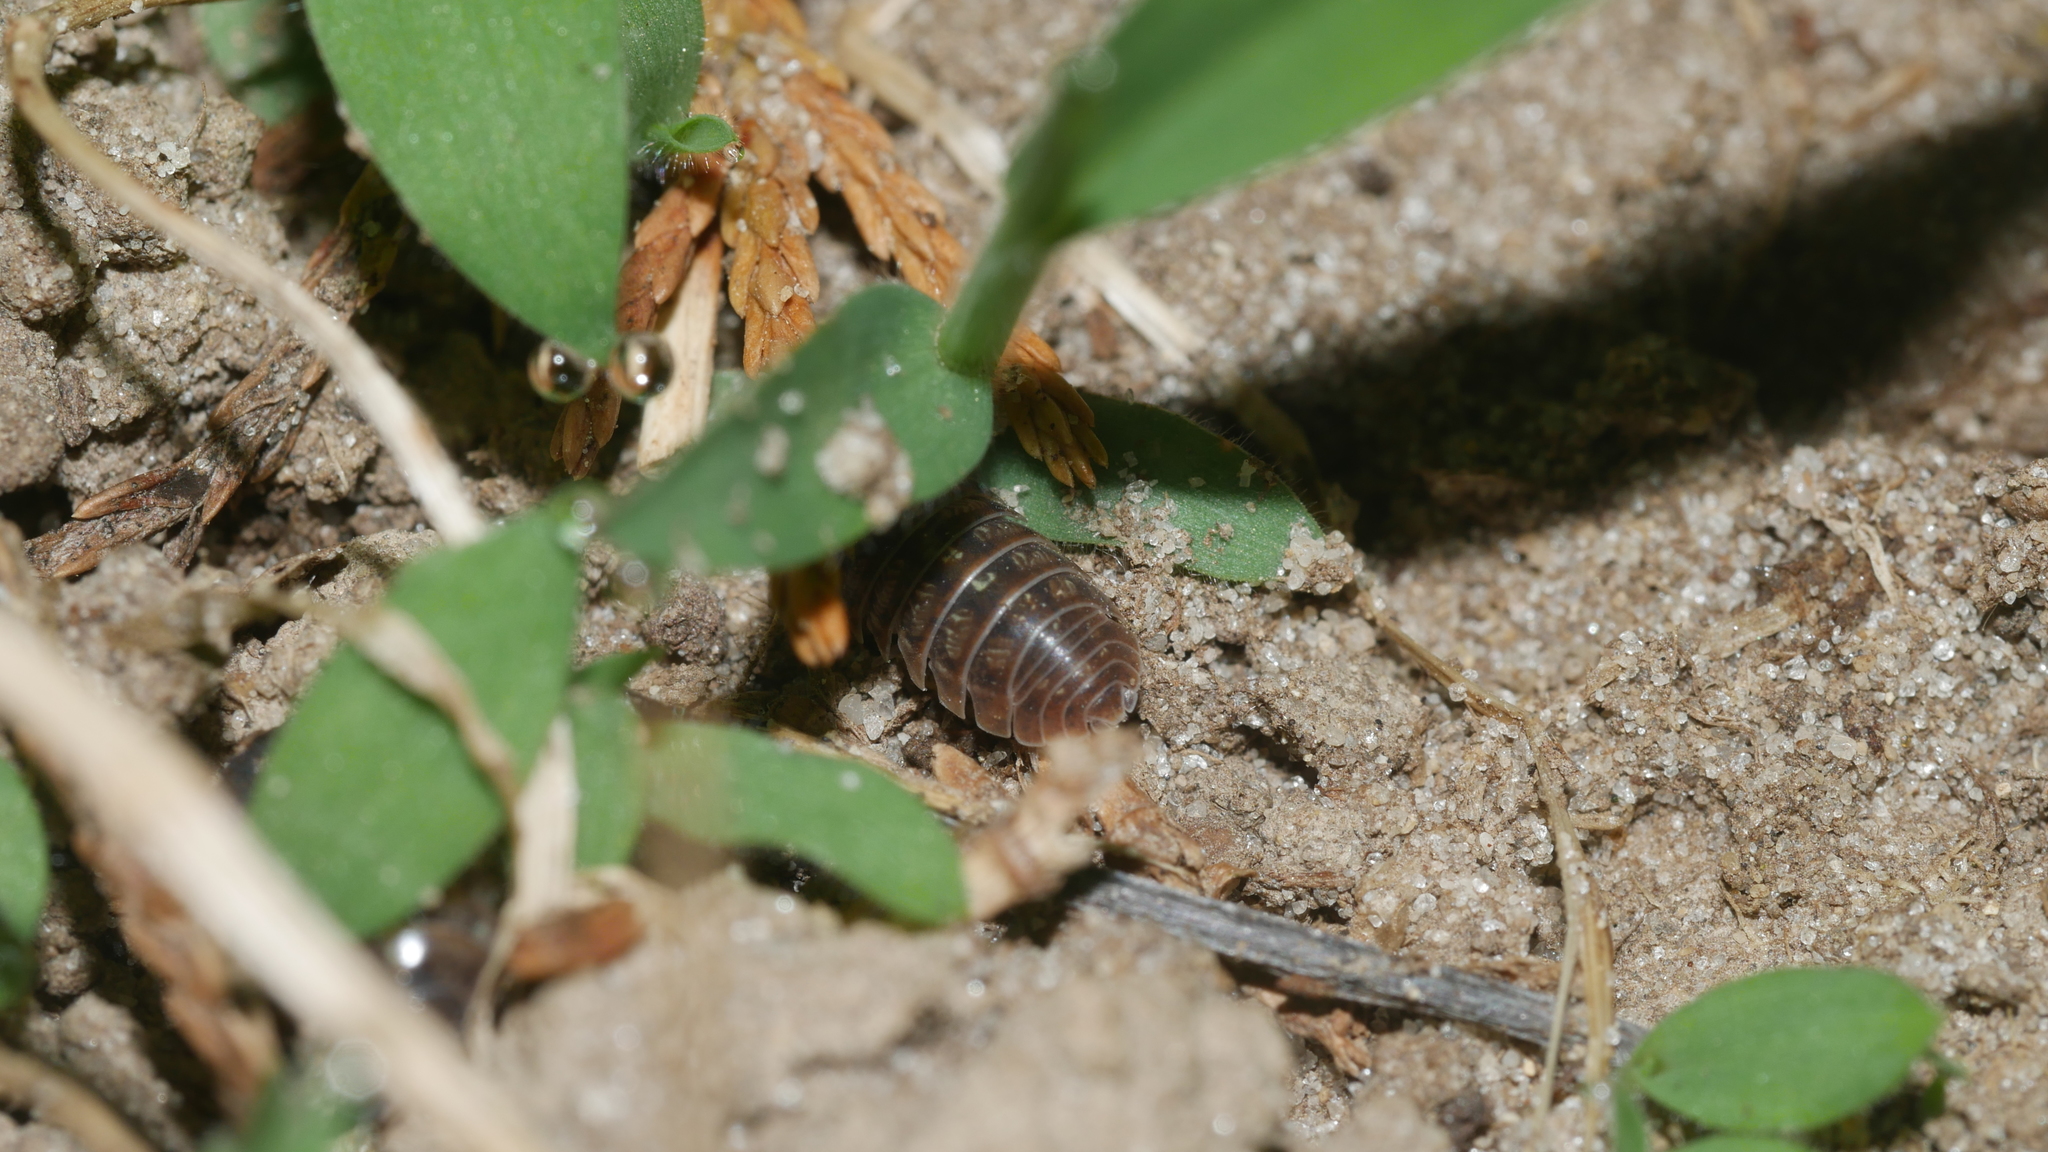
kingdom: Animalia
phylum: Arthropoda
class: Malacostraca
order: Isopoda
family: Armadillidiidae
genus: Armadillidium
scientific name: Armadillidium vulgare
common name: Common pill woodlouse
